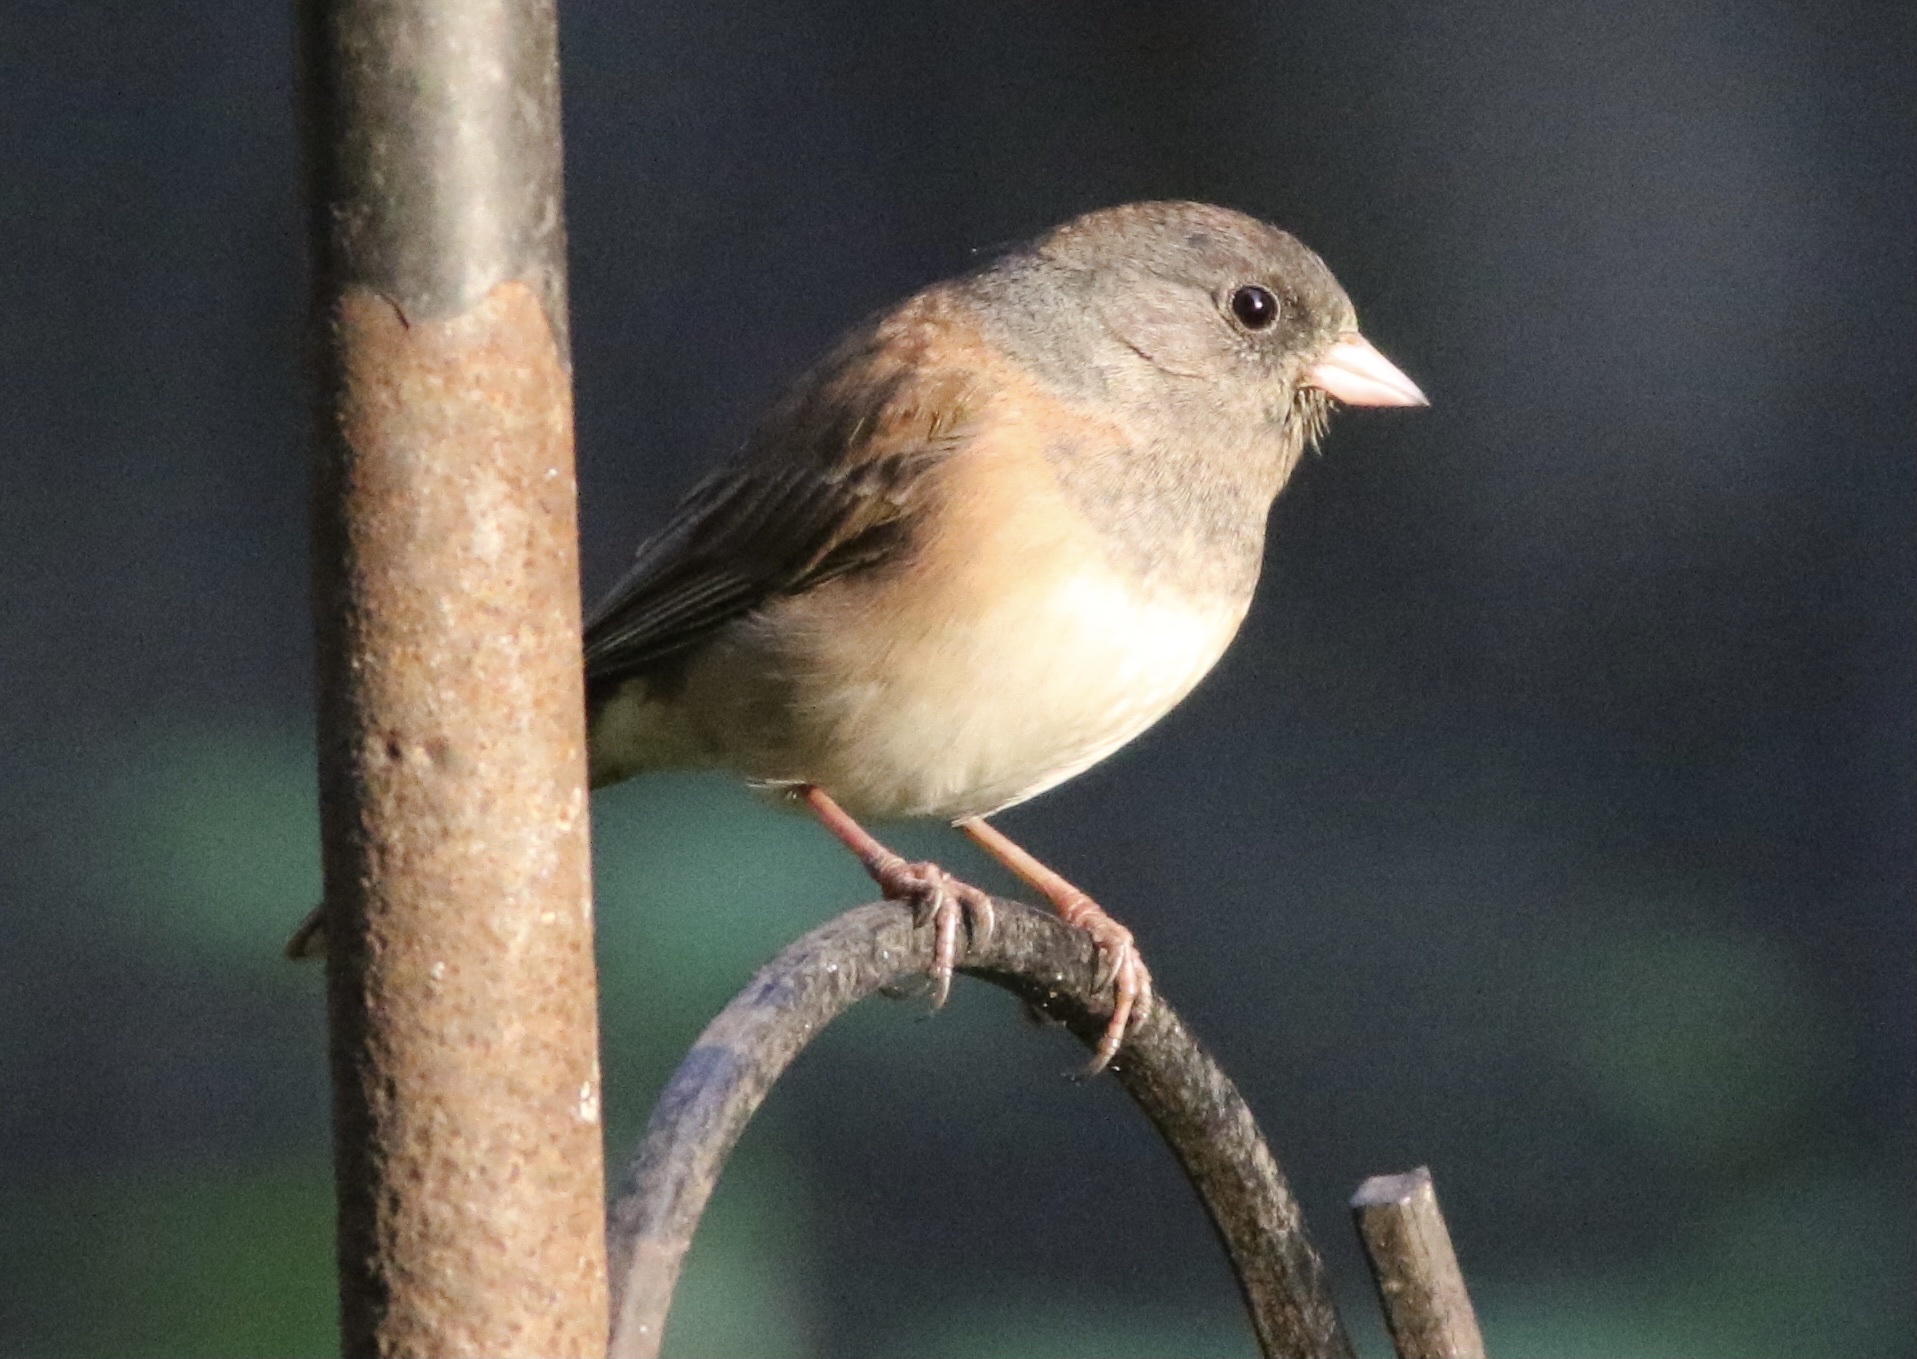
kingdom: Animalia
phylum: Chordata
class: Aves
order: Passeriformes
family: Passerellidae
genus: Junco
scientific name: Junco hyemalis
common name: Dark-eyed junco
